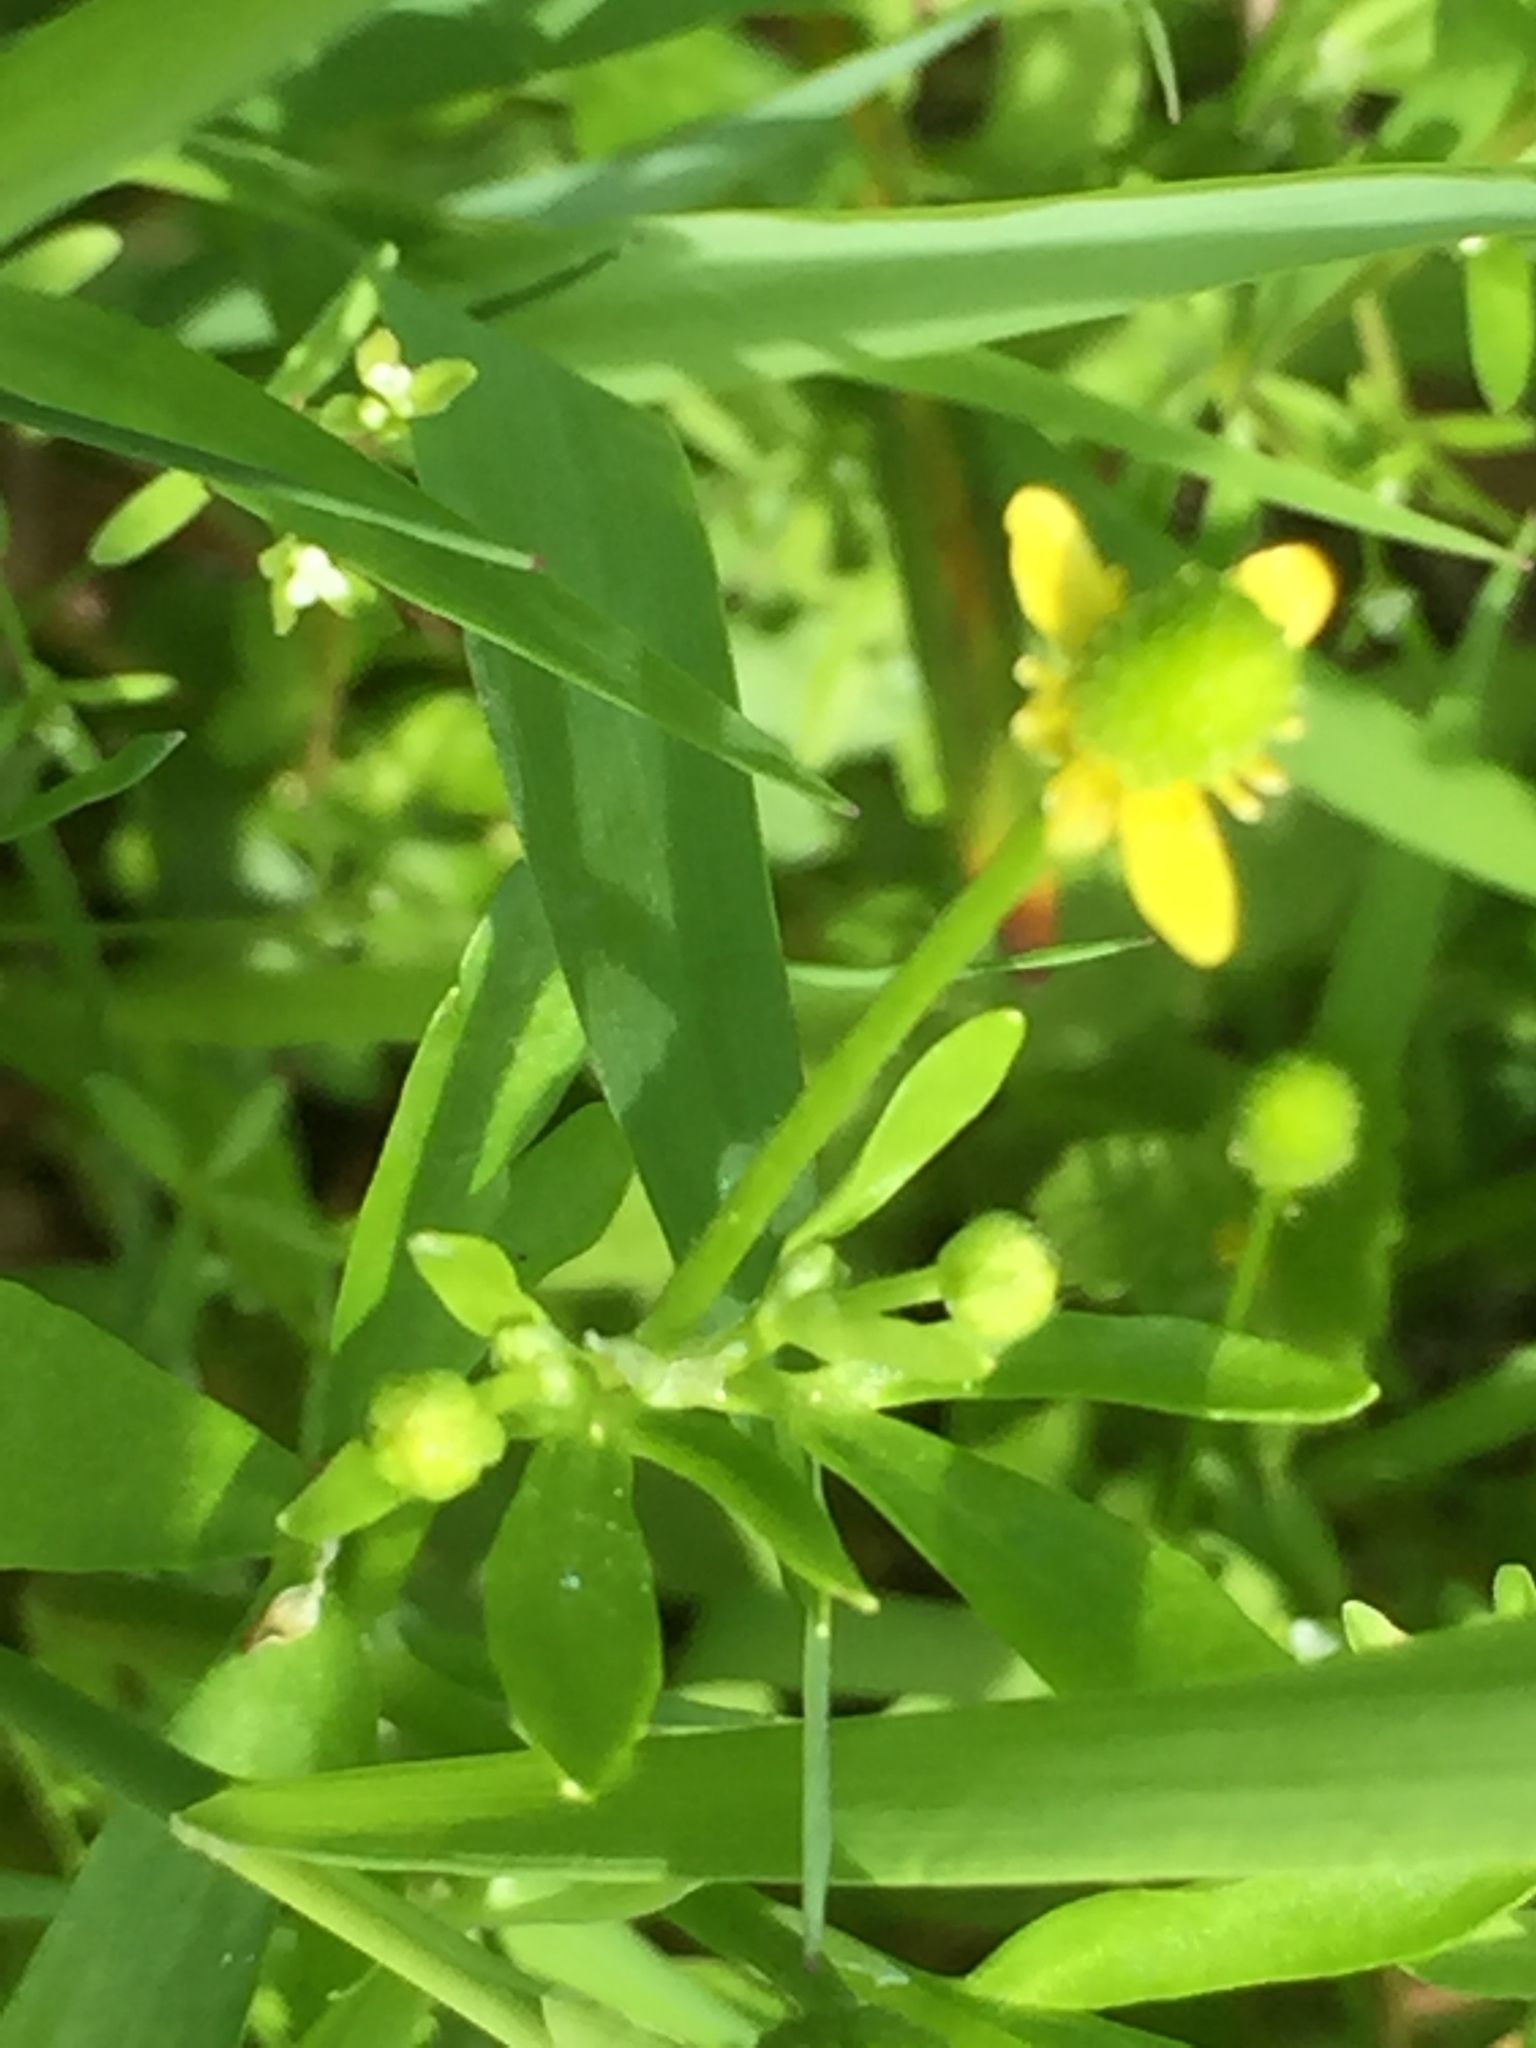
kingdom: Plantae
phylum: Tracheophyta
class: Magnoliopsida
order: Ranunculales
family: Ranunculaceae
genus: Ranunculus
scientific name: Ranunculus sceleratus
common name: Celery-leaved buttercup
